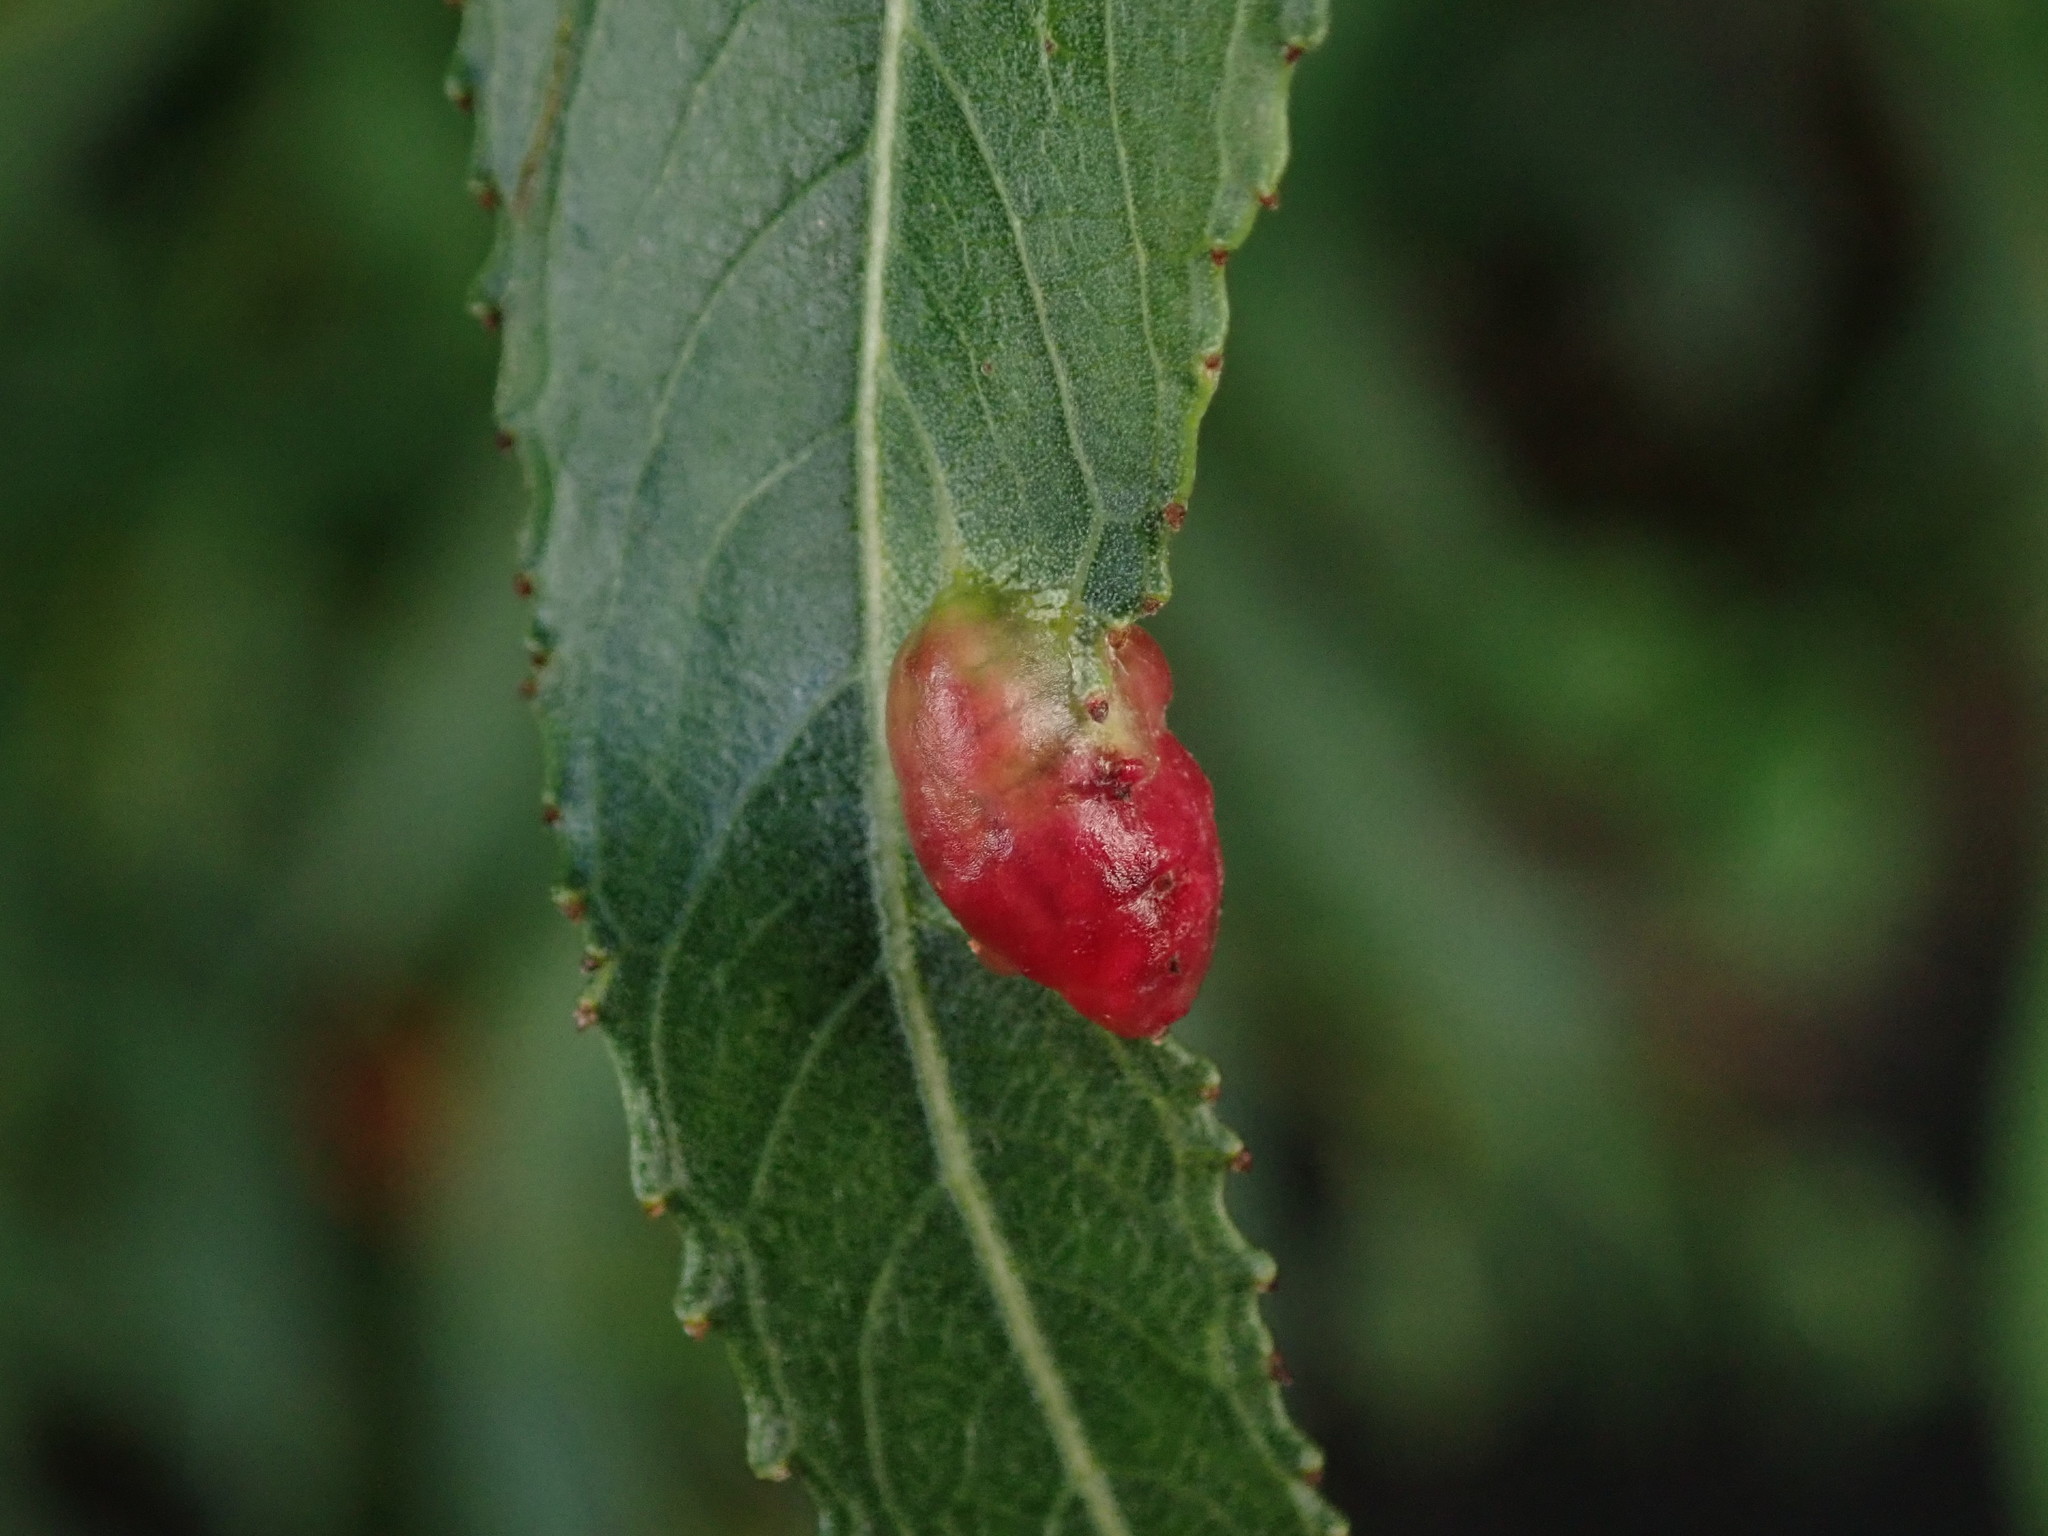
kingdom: Animalia
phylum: Arthropoda
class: Insecta
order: Hymenoptera
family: Tenthredinidae
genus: Pontania
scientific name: Pontania proxima
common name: Common sawfly
